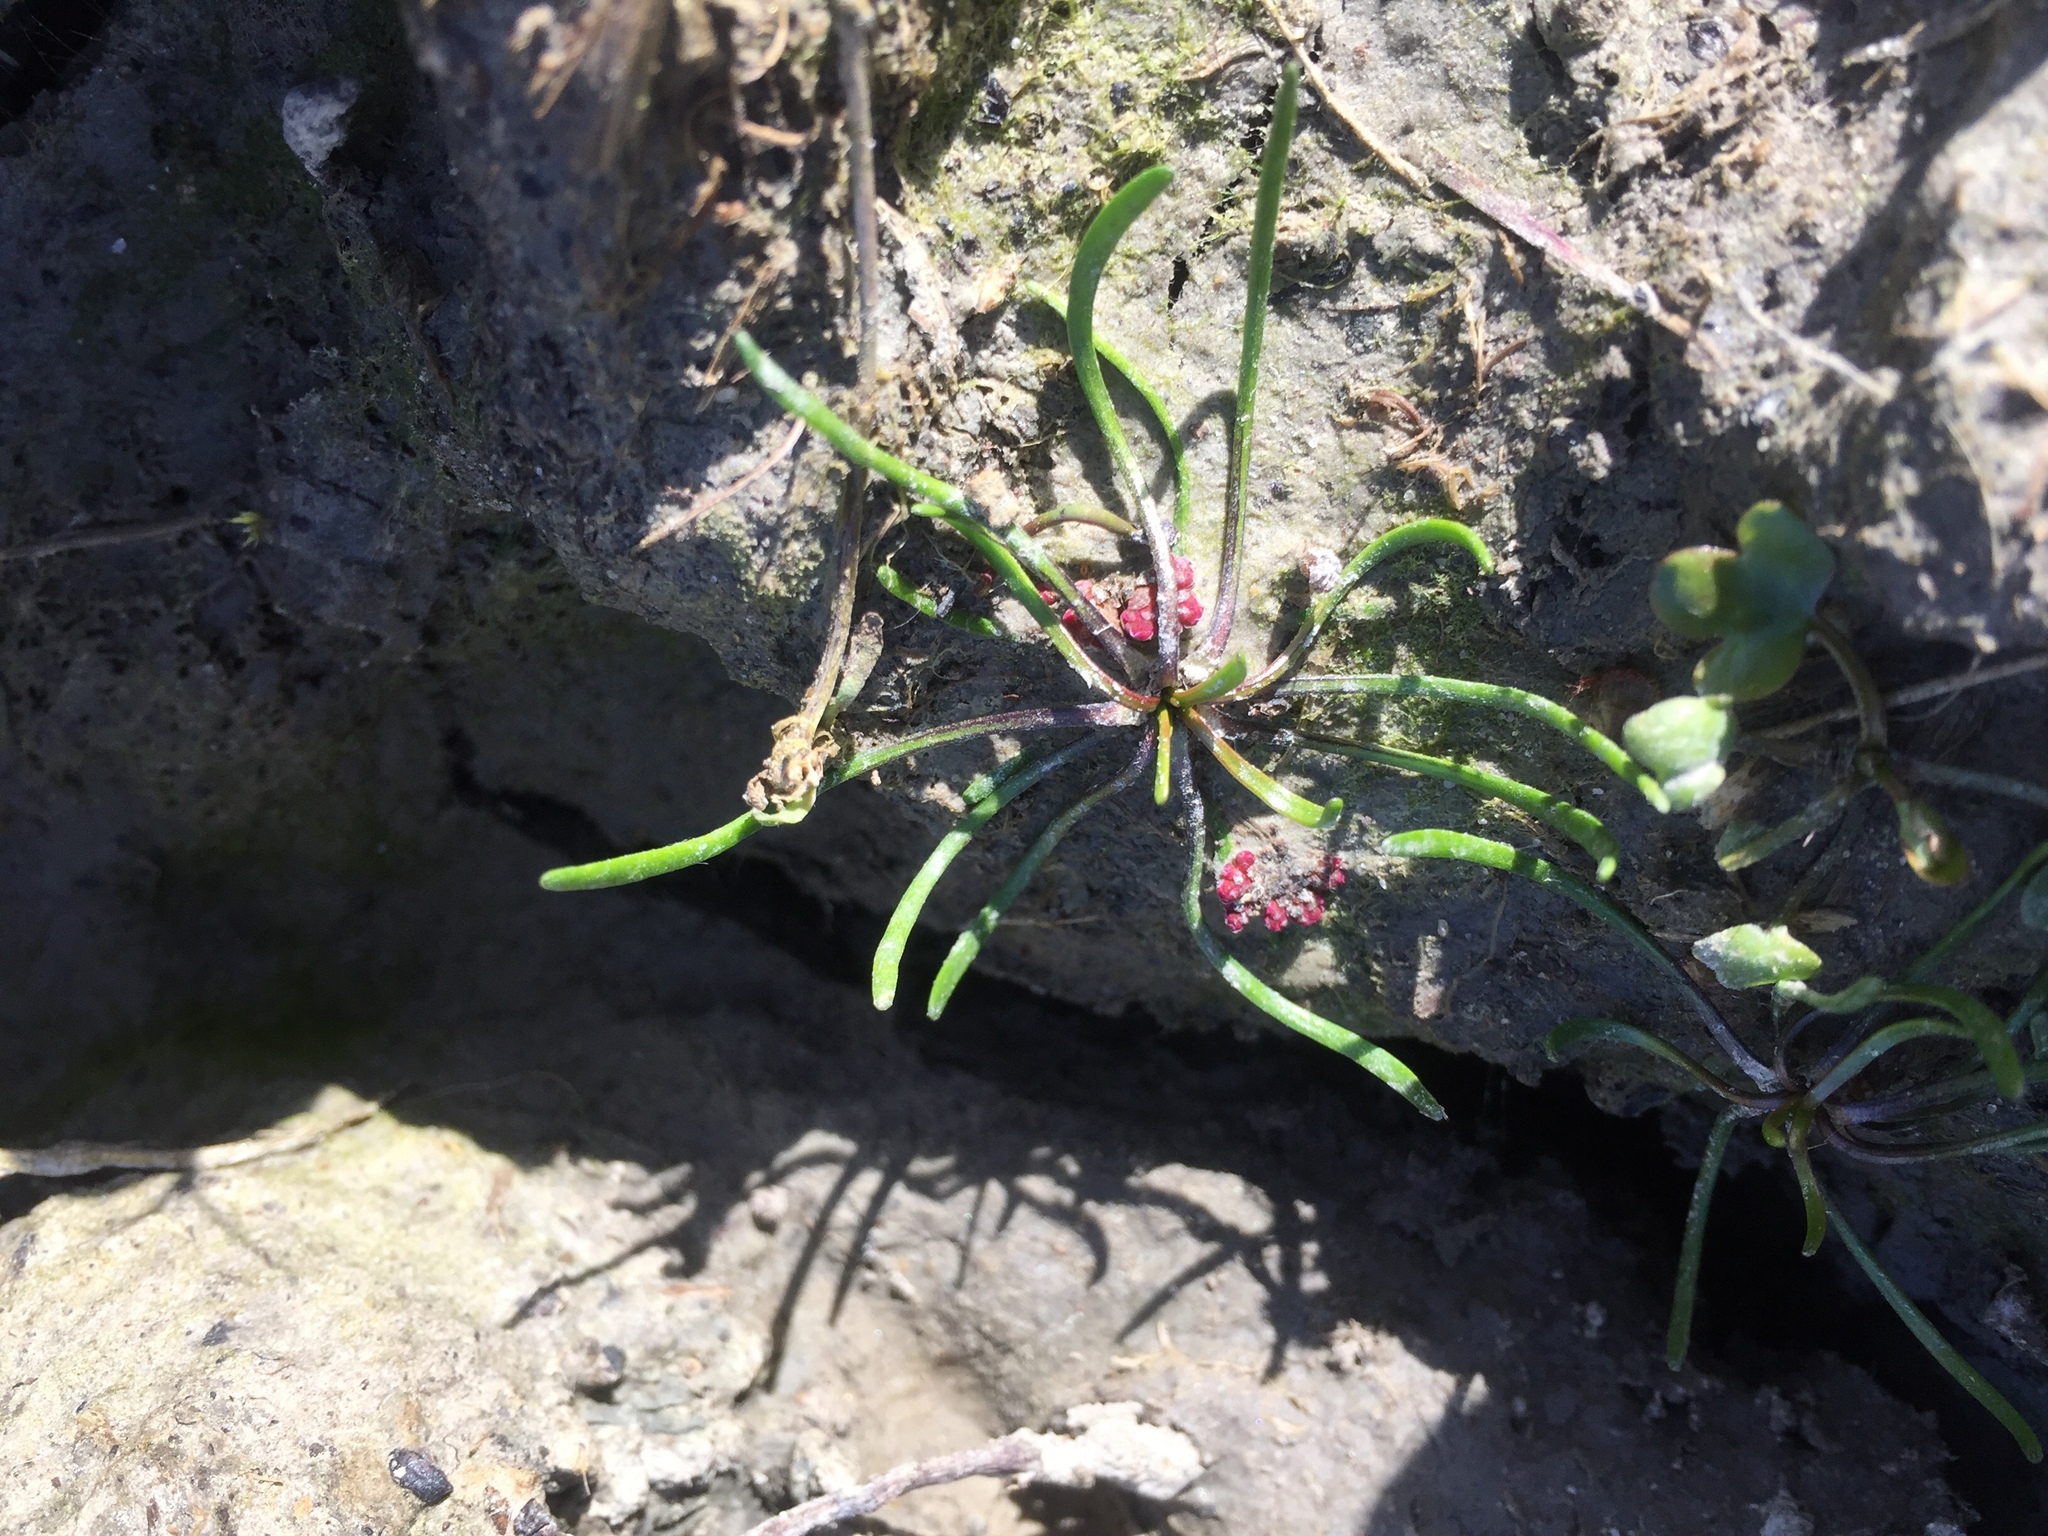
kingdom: Plantae
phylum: Tracheophyta
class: Magnoliopsida
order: Ranunculales
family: Ranunculaceae
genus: Myosurus
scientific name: Myosurus minimus
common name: Mousetail
